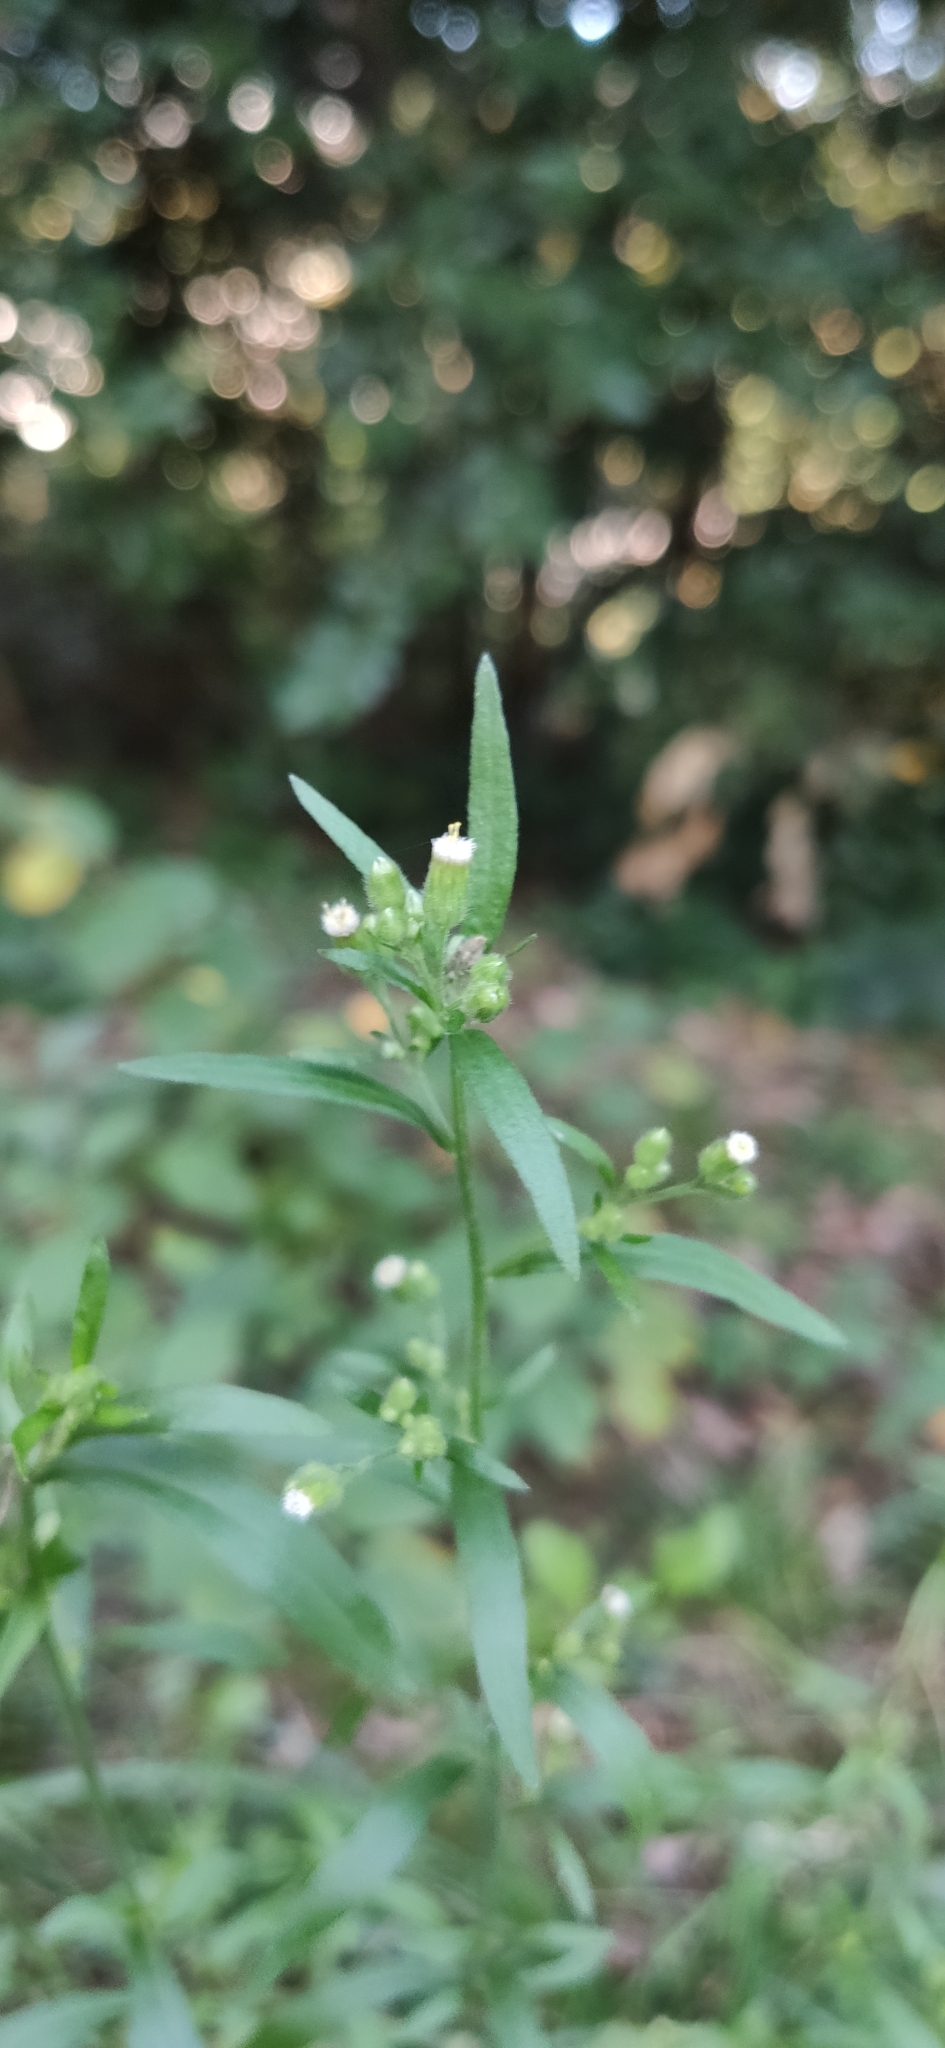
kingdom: Plantae
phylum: Tracheophyta
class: Magnoliopsida
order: Asterales
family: Asteraceae
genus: Erigeron
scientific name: Erigeron canadensis
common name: Canadian fleabane
